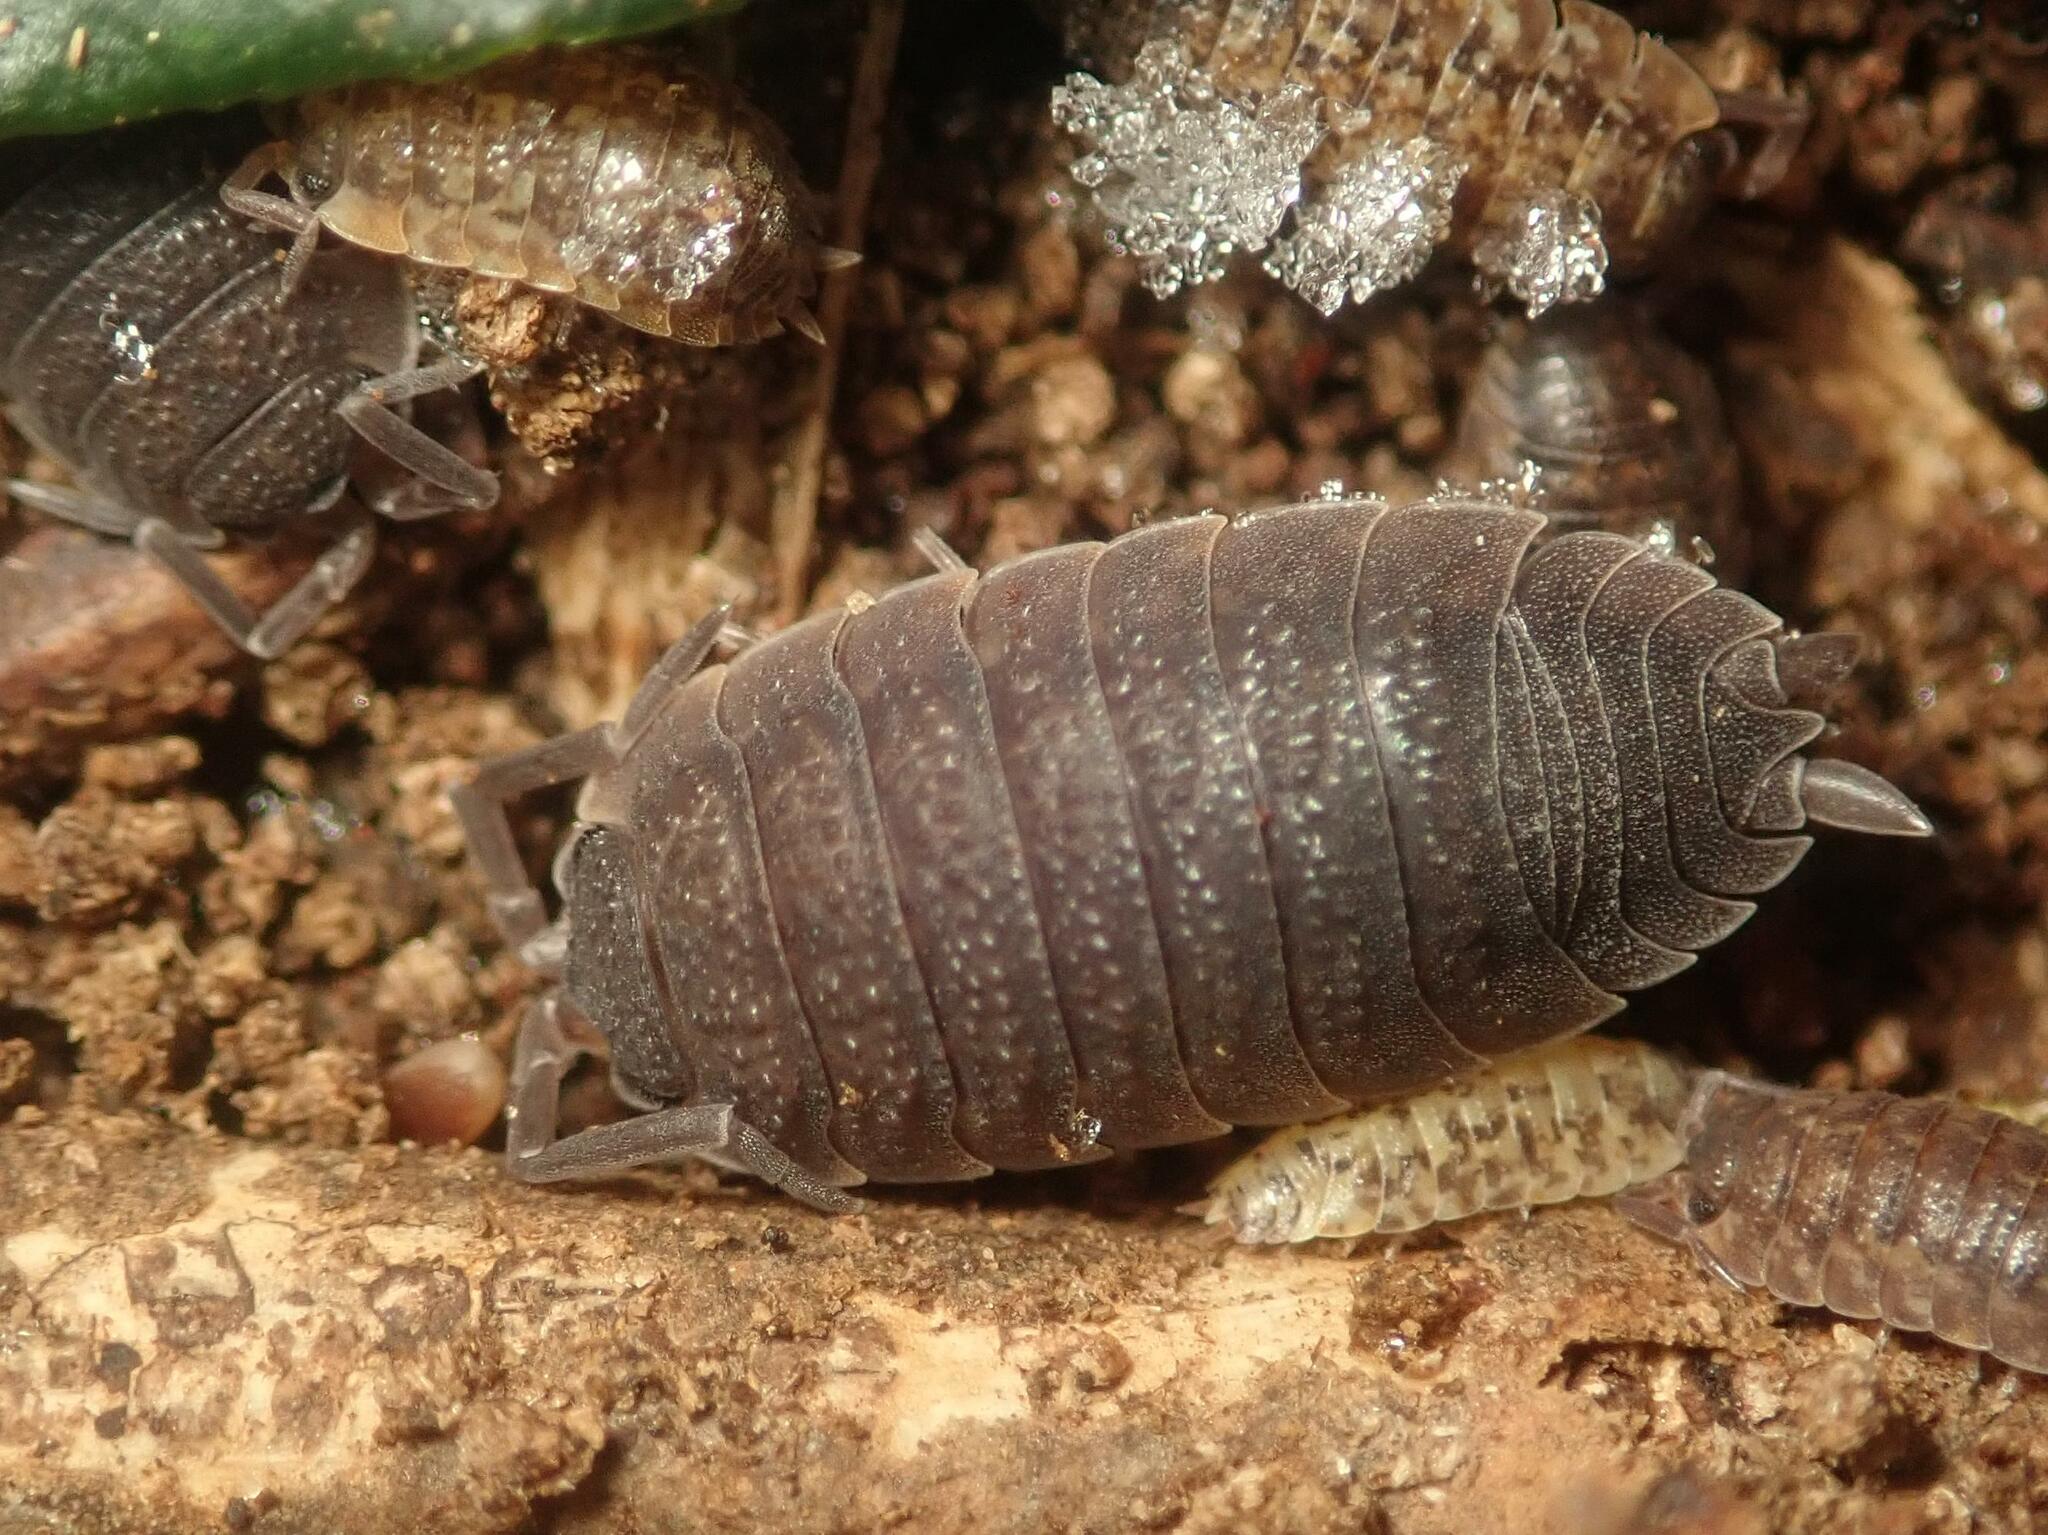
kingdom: Animalia
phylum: Arthropoda
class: Malacostraca
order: Isopoda
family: Porcellionidae
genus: Porcellio
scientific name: Porcellio scaber
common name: Common rough woodlouse
